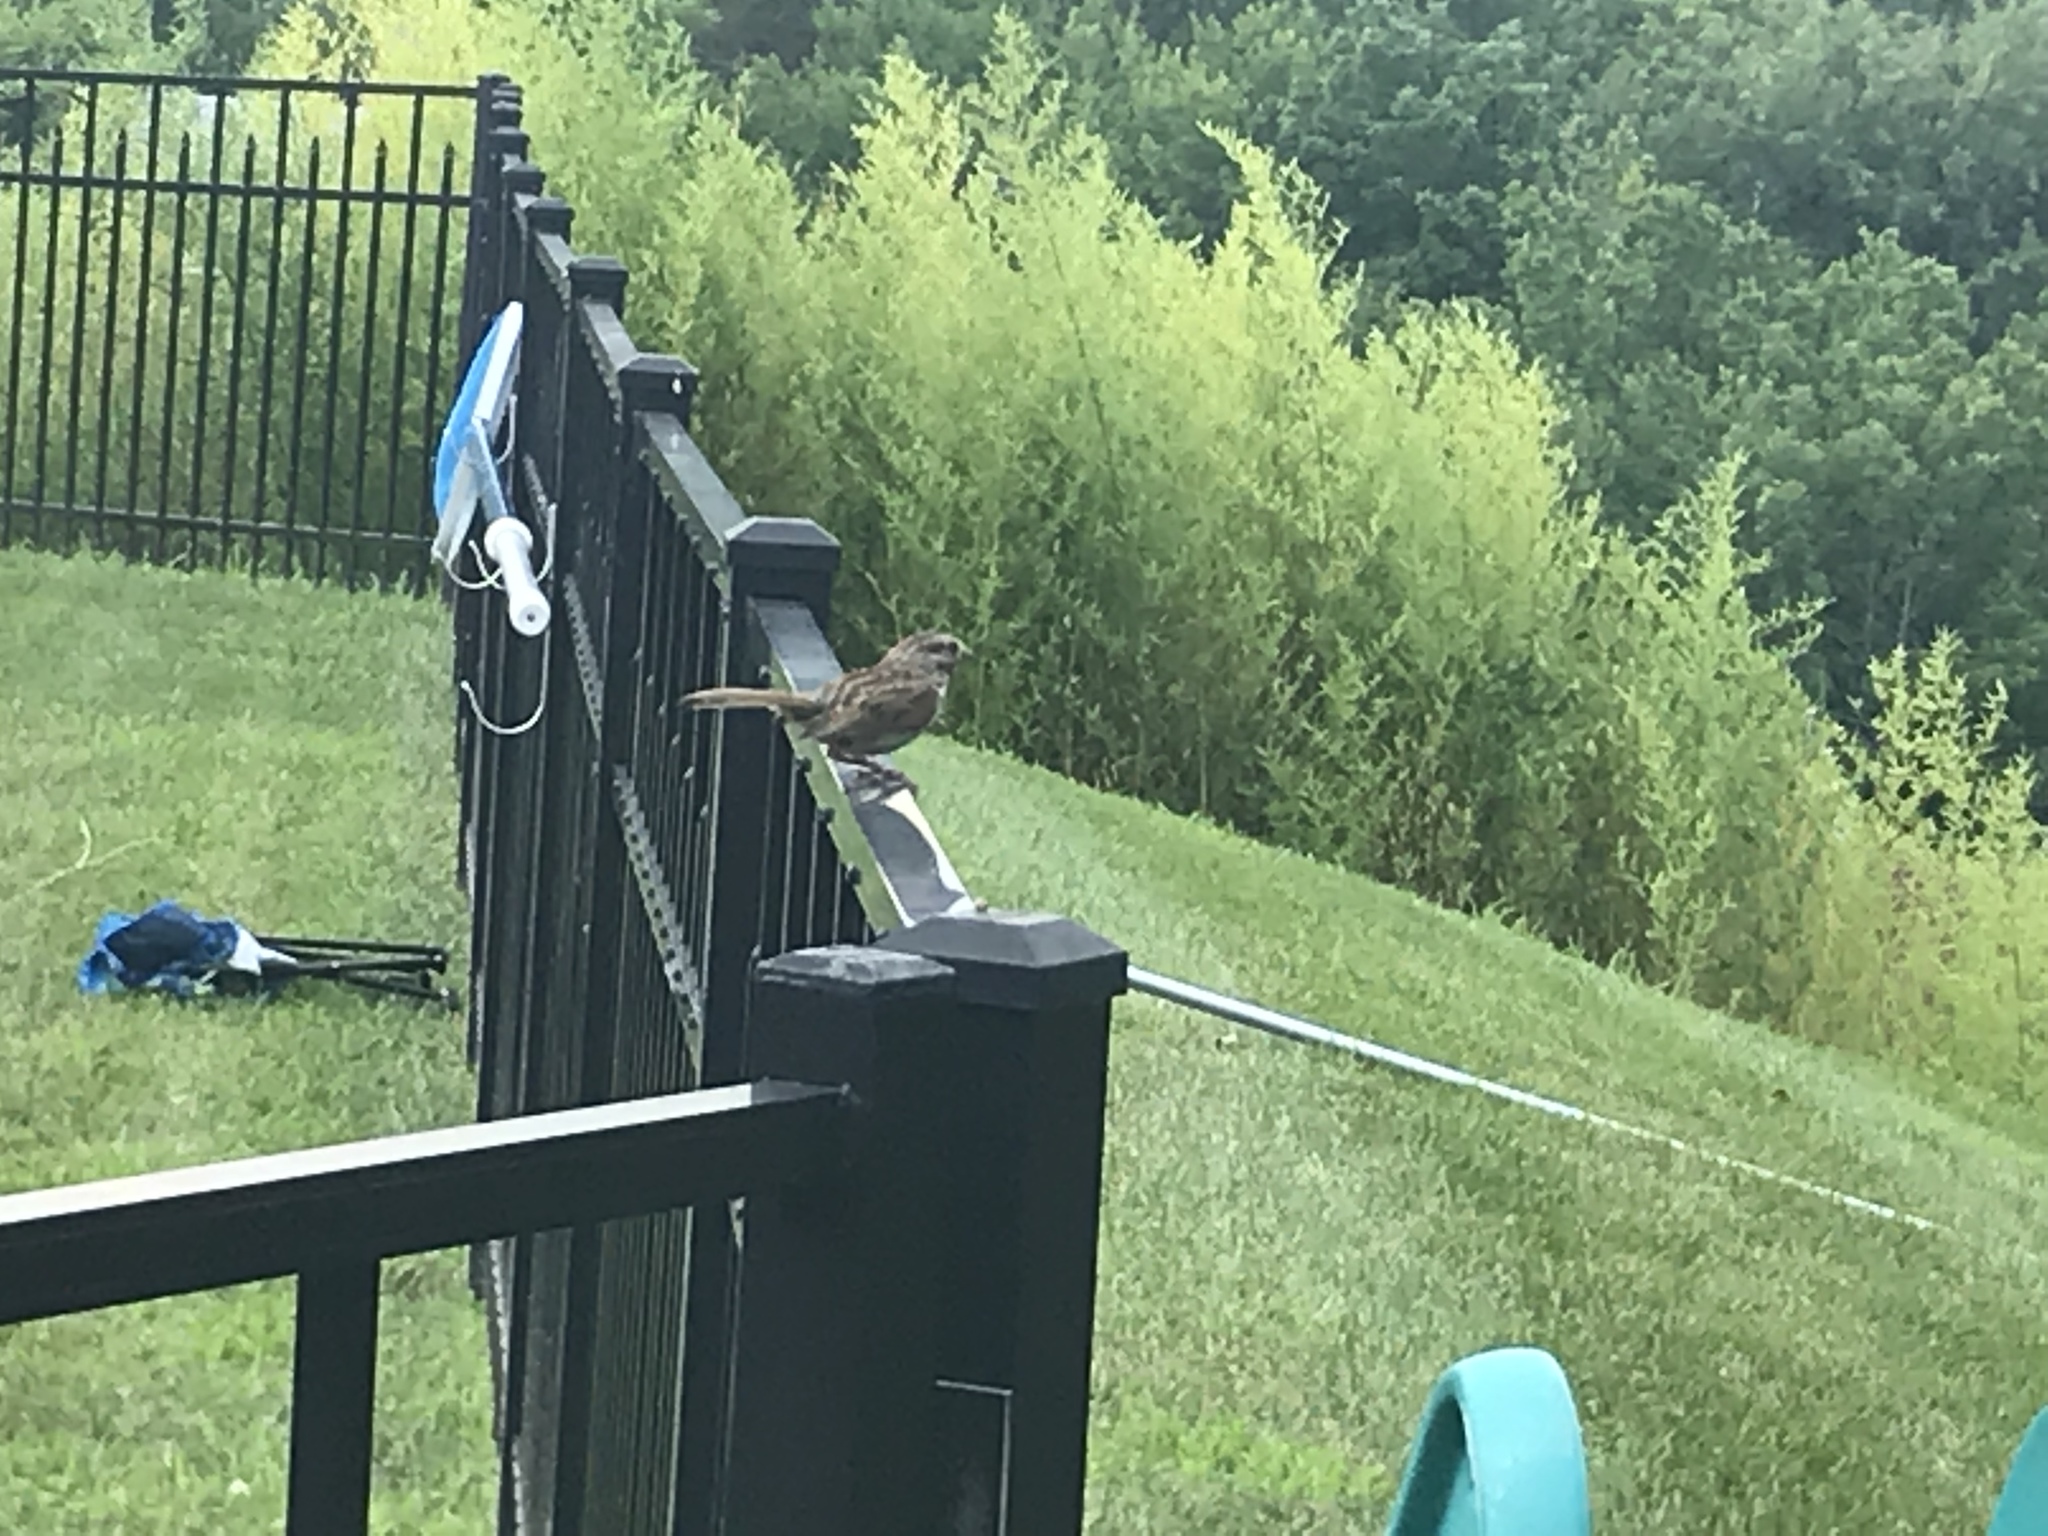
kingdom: Animalia
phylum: Chordata
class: Aves
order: Passeriformes
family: Passerellidae
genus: Melospiza
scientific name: Melospiza melodia
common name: Song sparrow
